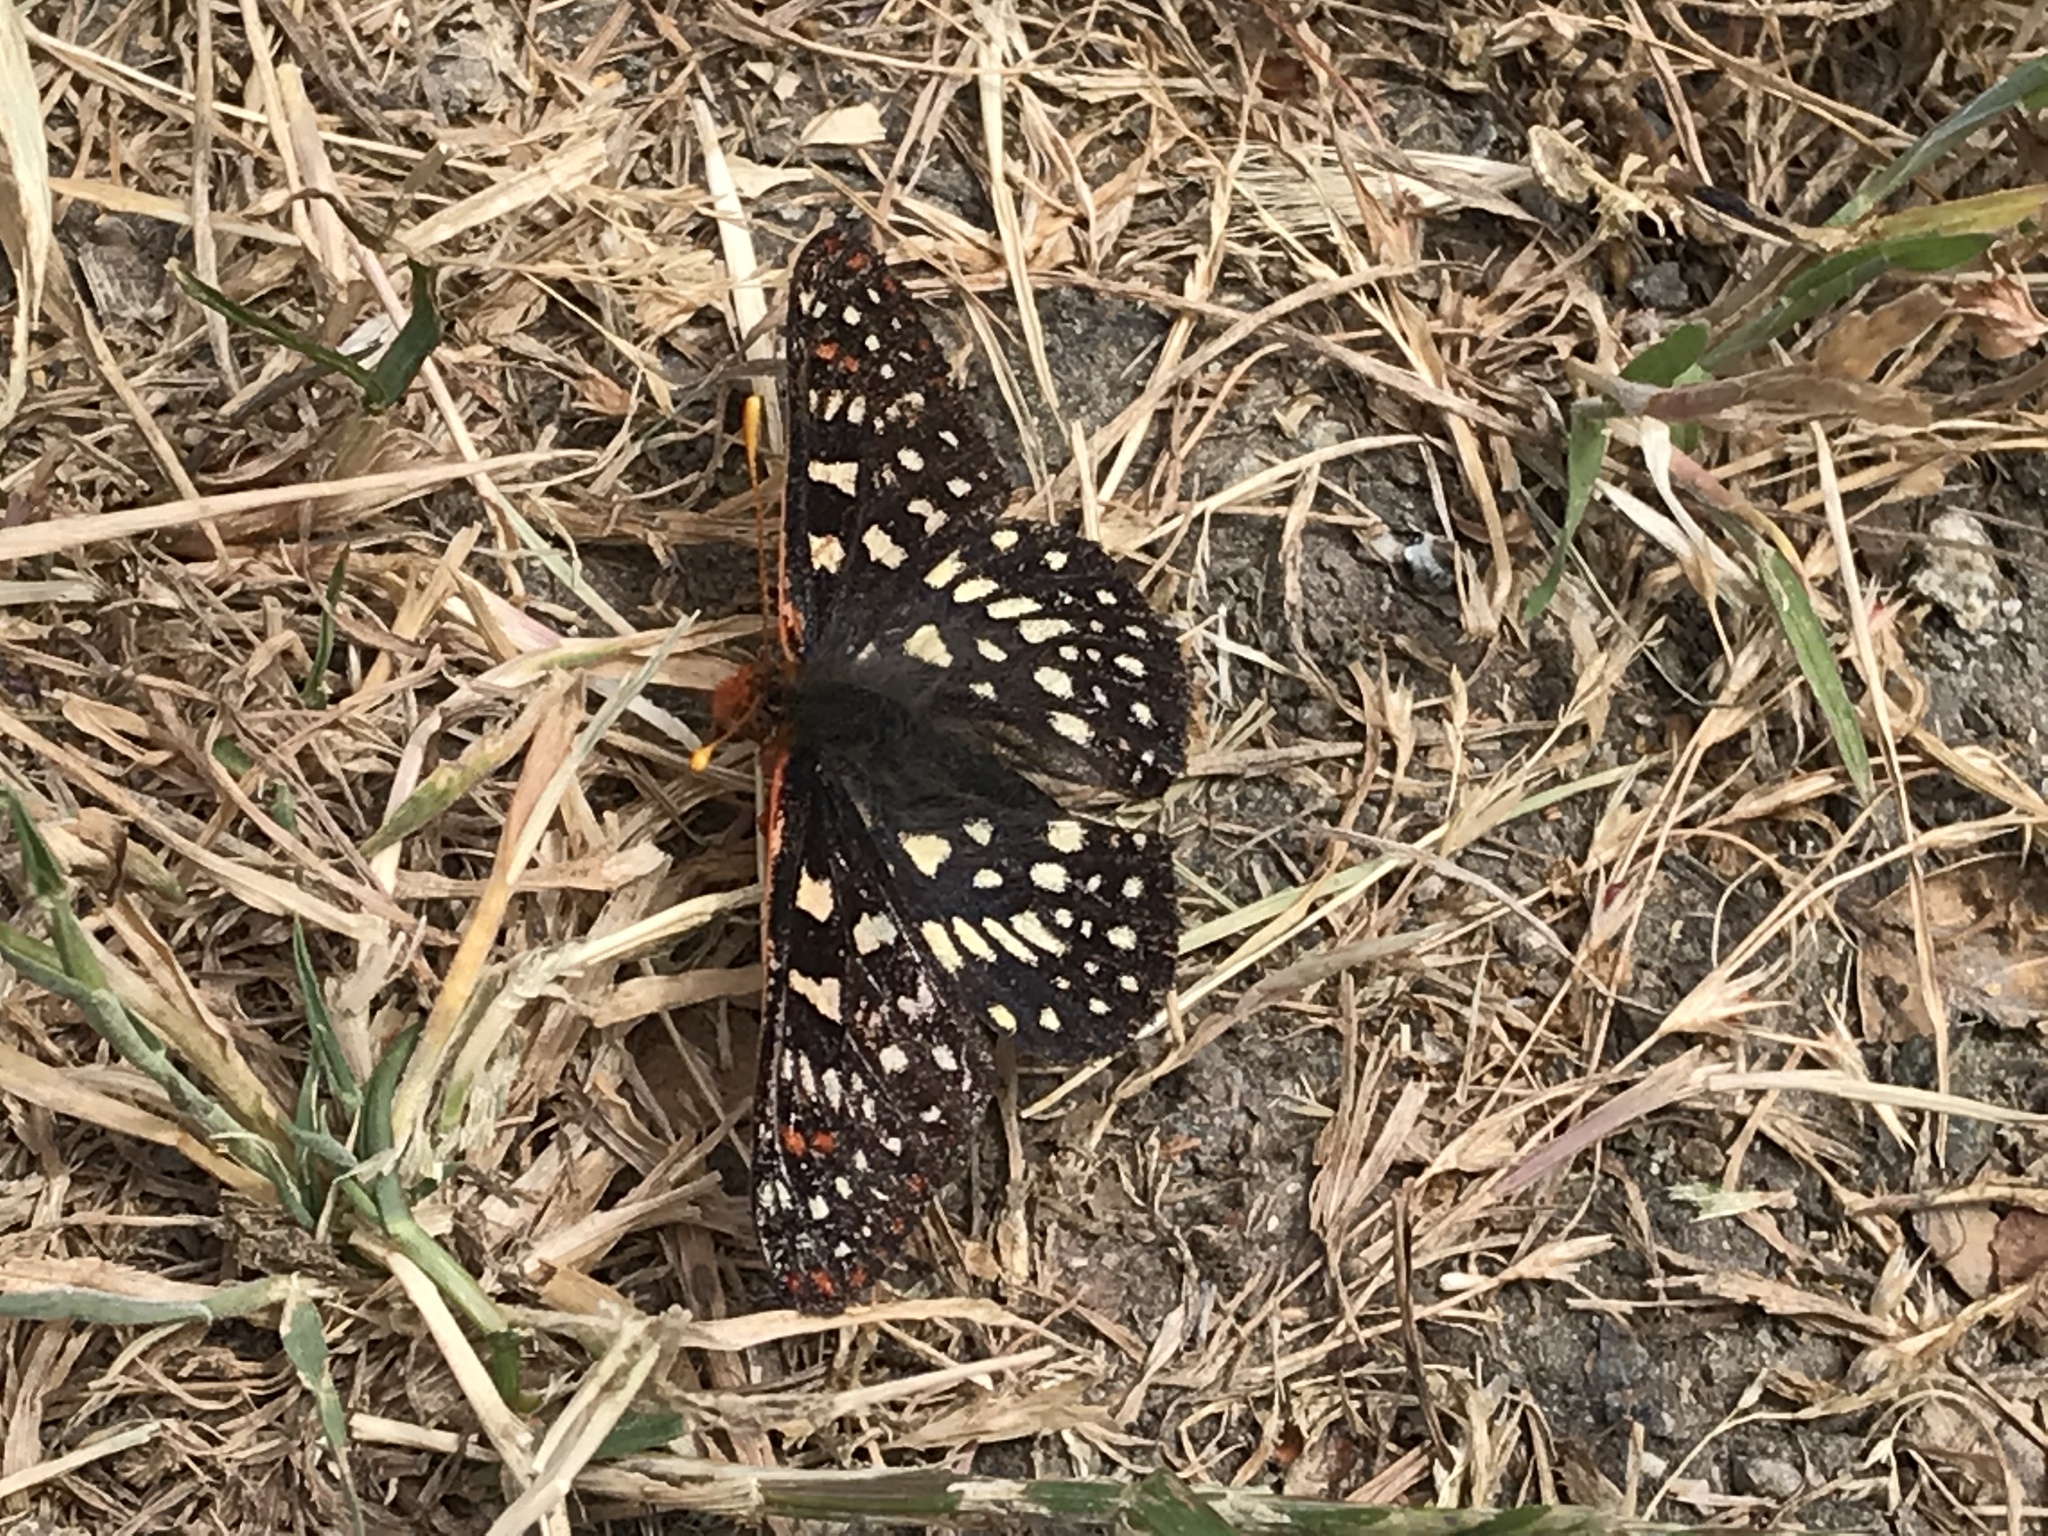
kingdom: Animalia
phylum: Arthropoda
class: Insecta
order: Lepidoptera
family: Nymphalidae
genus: Occidryas
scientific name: Occidryas chalcedona
